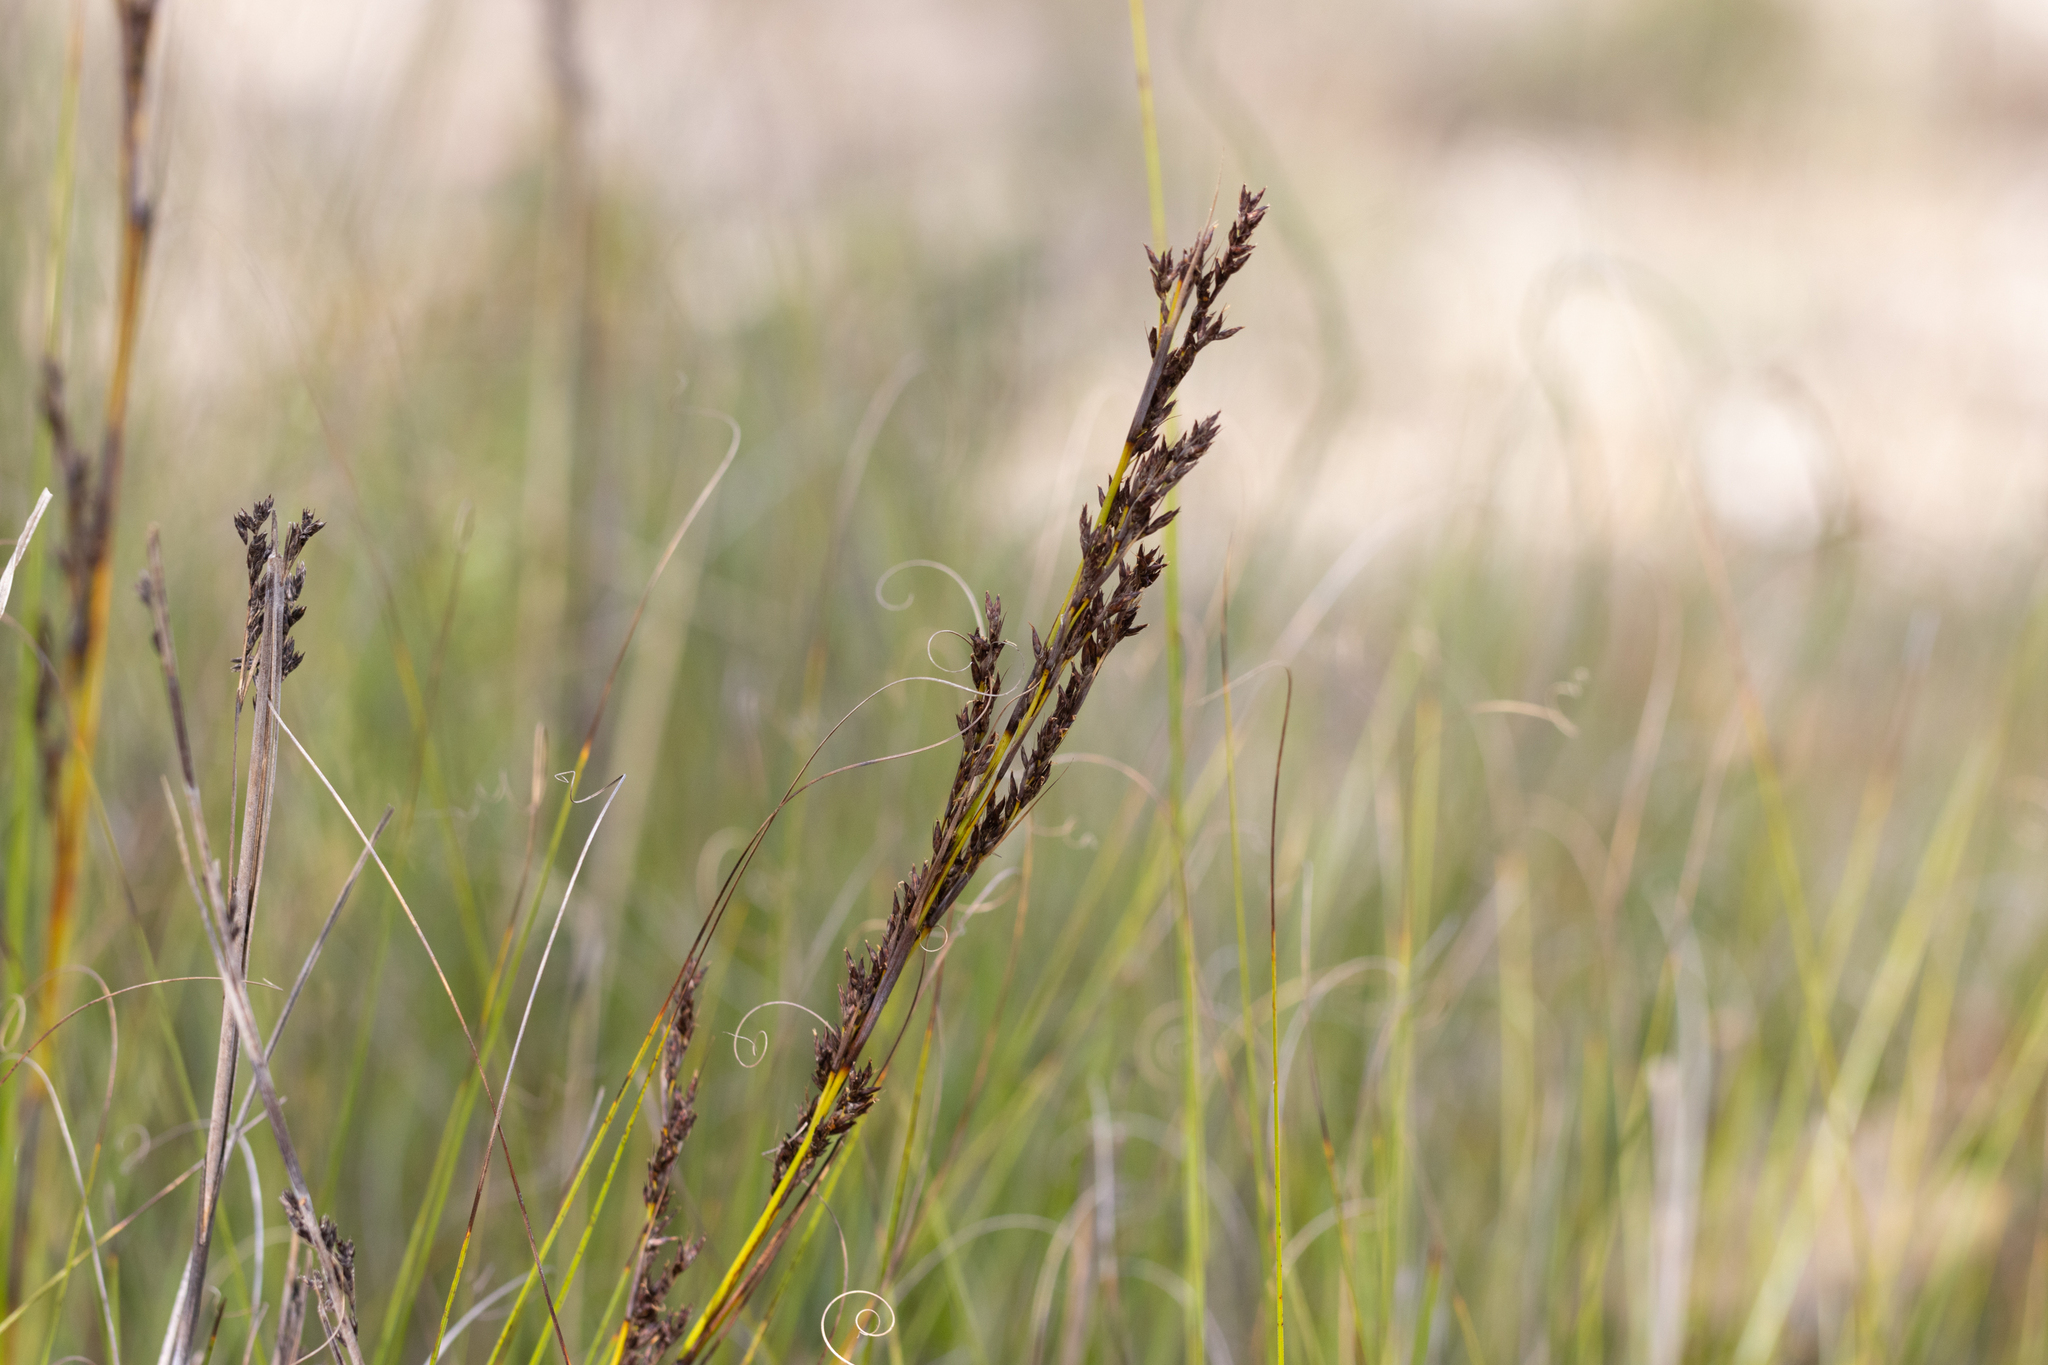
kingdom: Plantae
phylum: Tracheophyta
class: Liliopsida
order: Poales
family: Cyperaceae
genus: Gahnia
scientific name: Gahnia ancistrophylla
